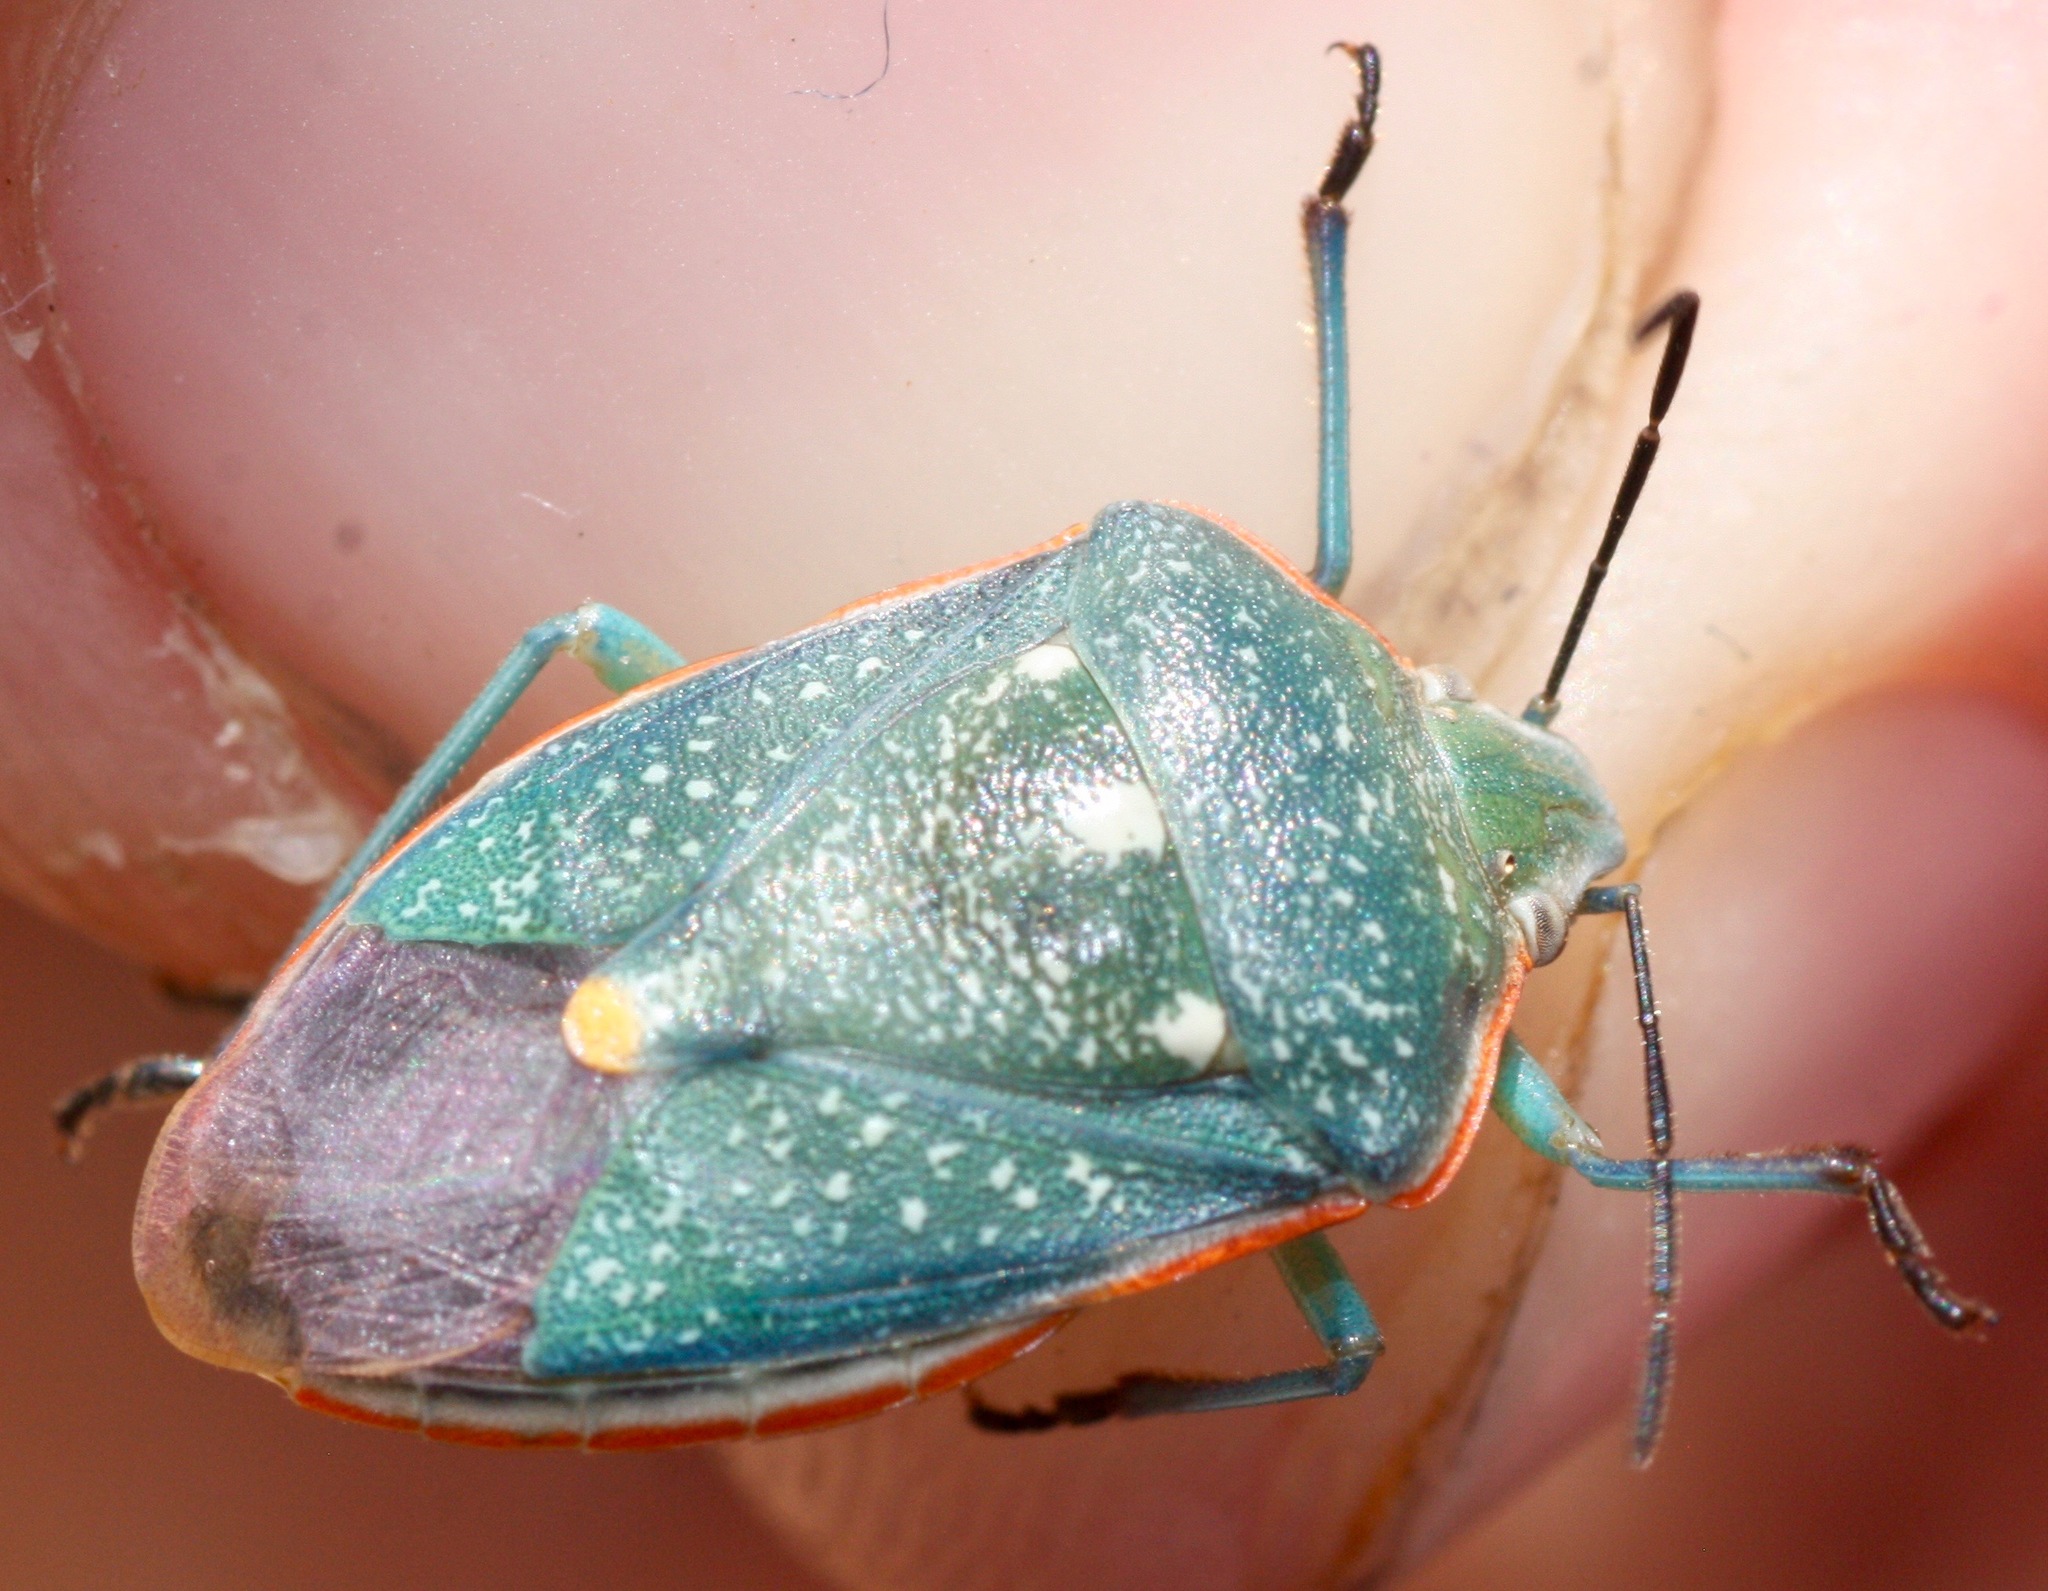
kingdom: Animalia
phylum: Arthropoda
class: Insecta
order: Hemiptera
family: Pentatomidae
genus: Chlorochroa
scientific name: Chlorochroa sayi
